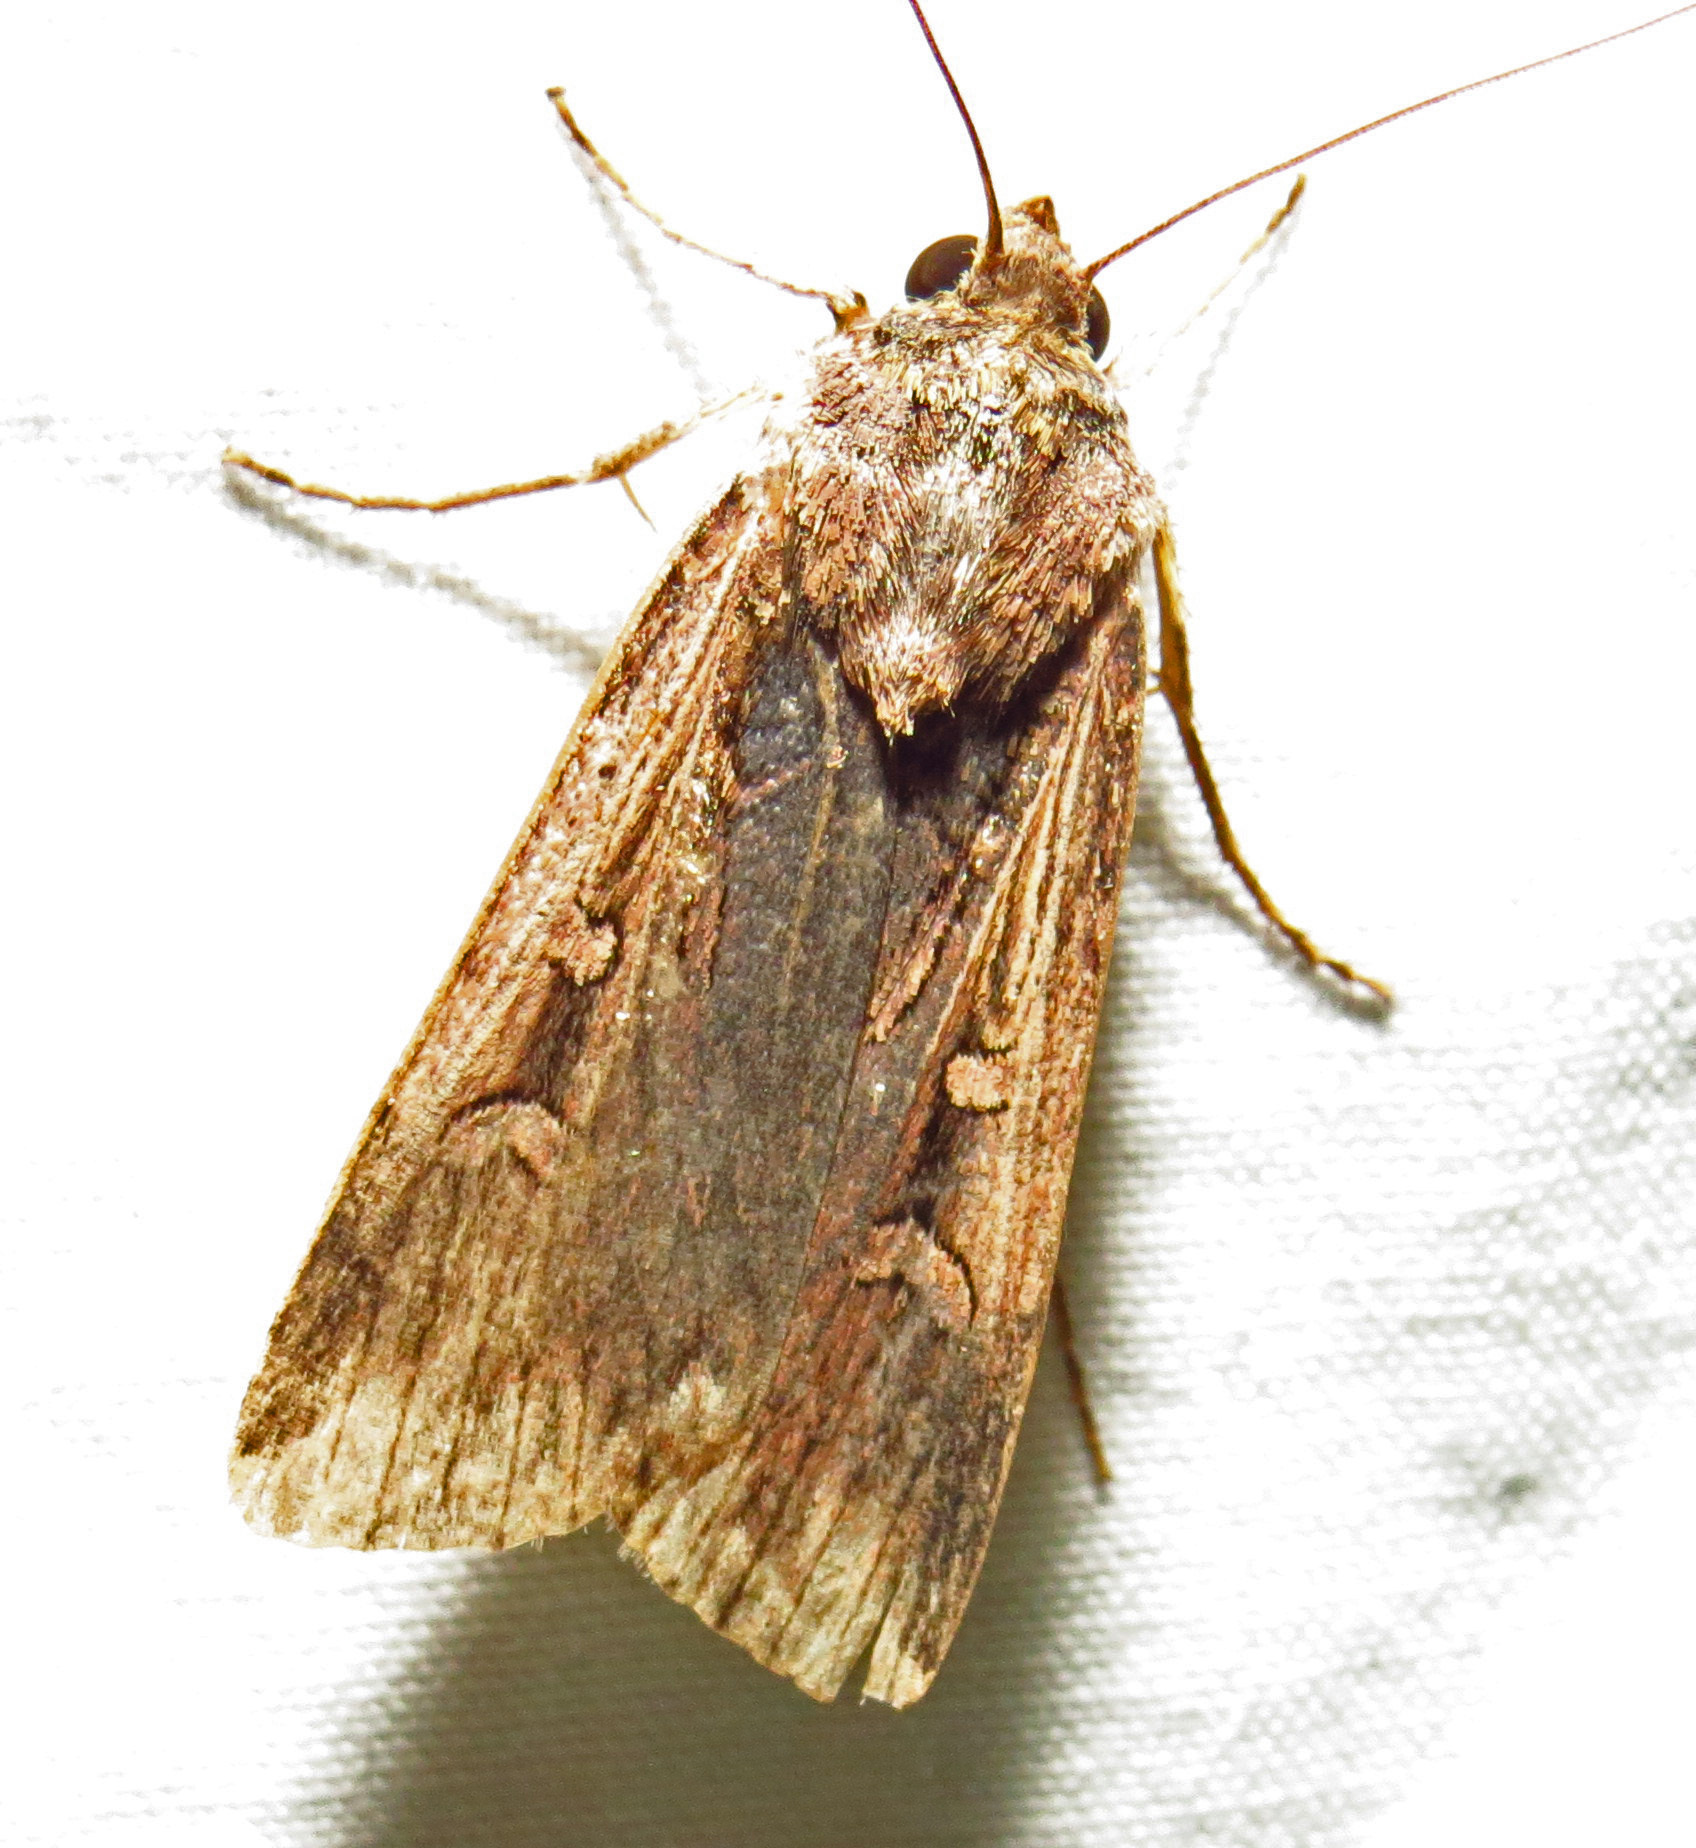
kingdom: Animalia
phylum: Arthropoda
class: Insecta
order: Lepidoptera
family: Noctuidae
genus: Feltia
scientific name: Feltia subterranea
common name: Granulate cutworm
